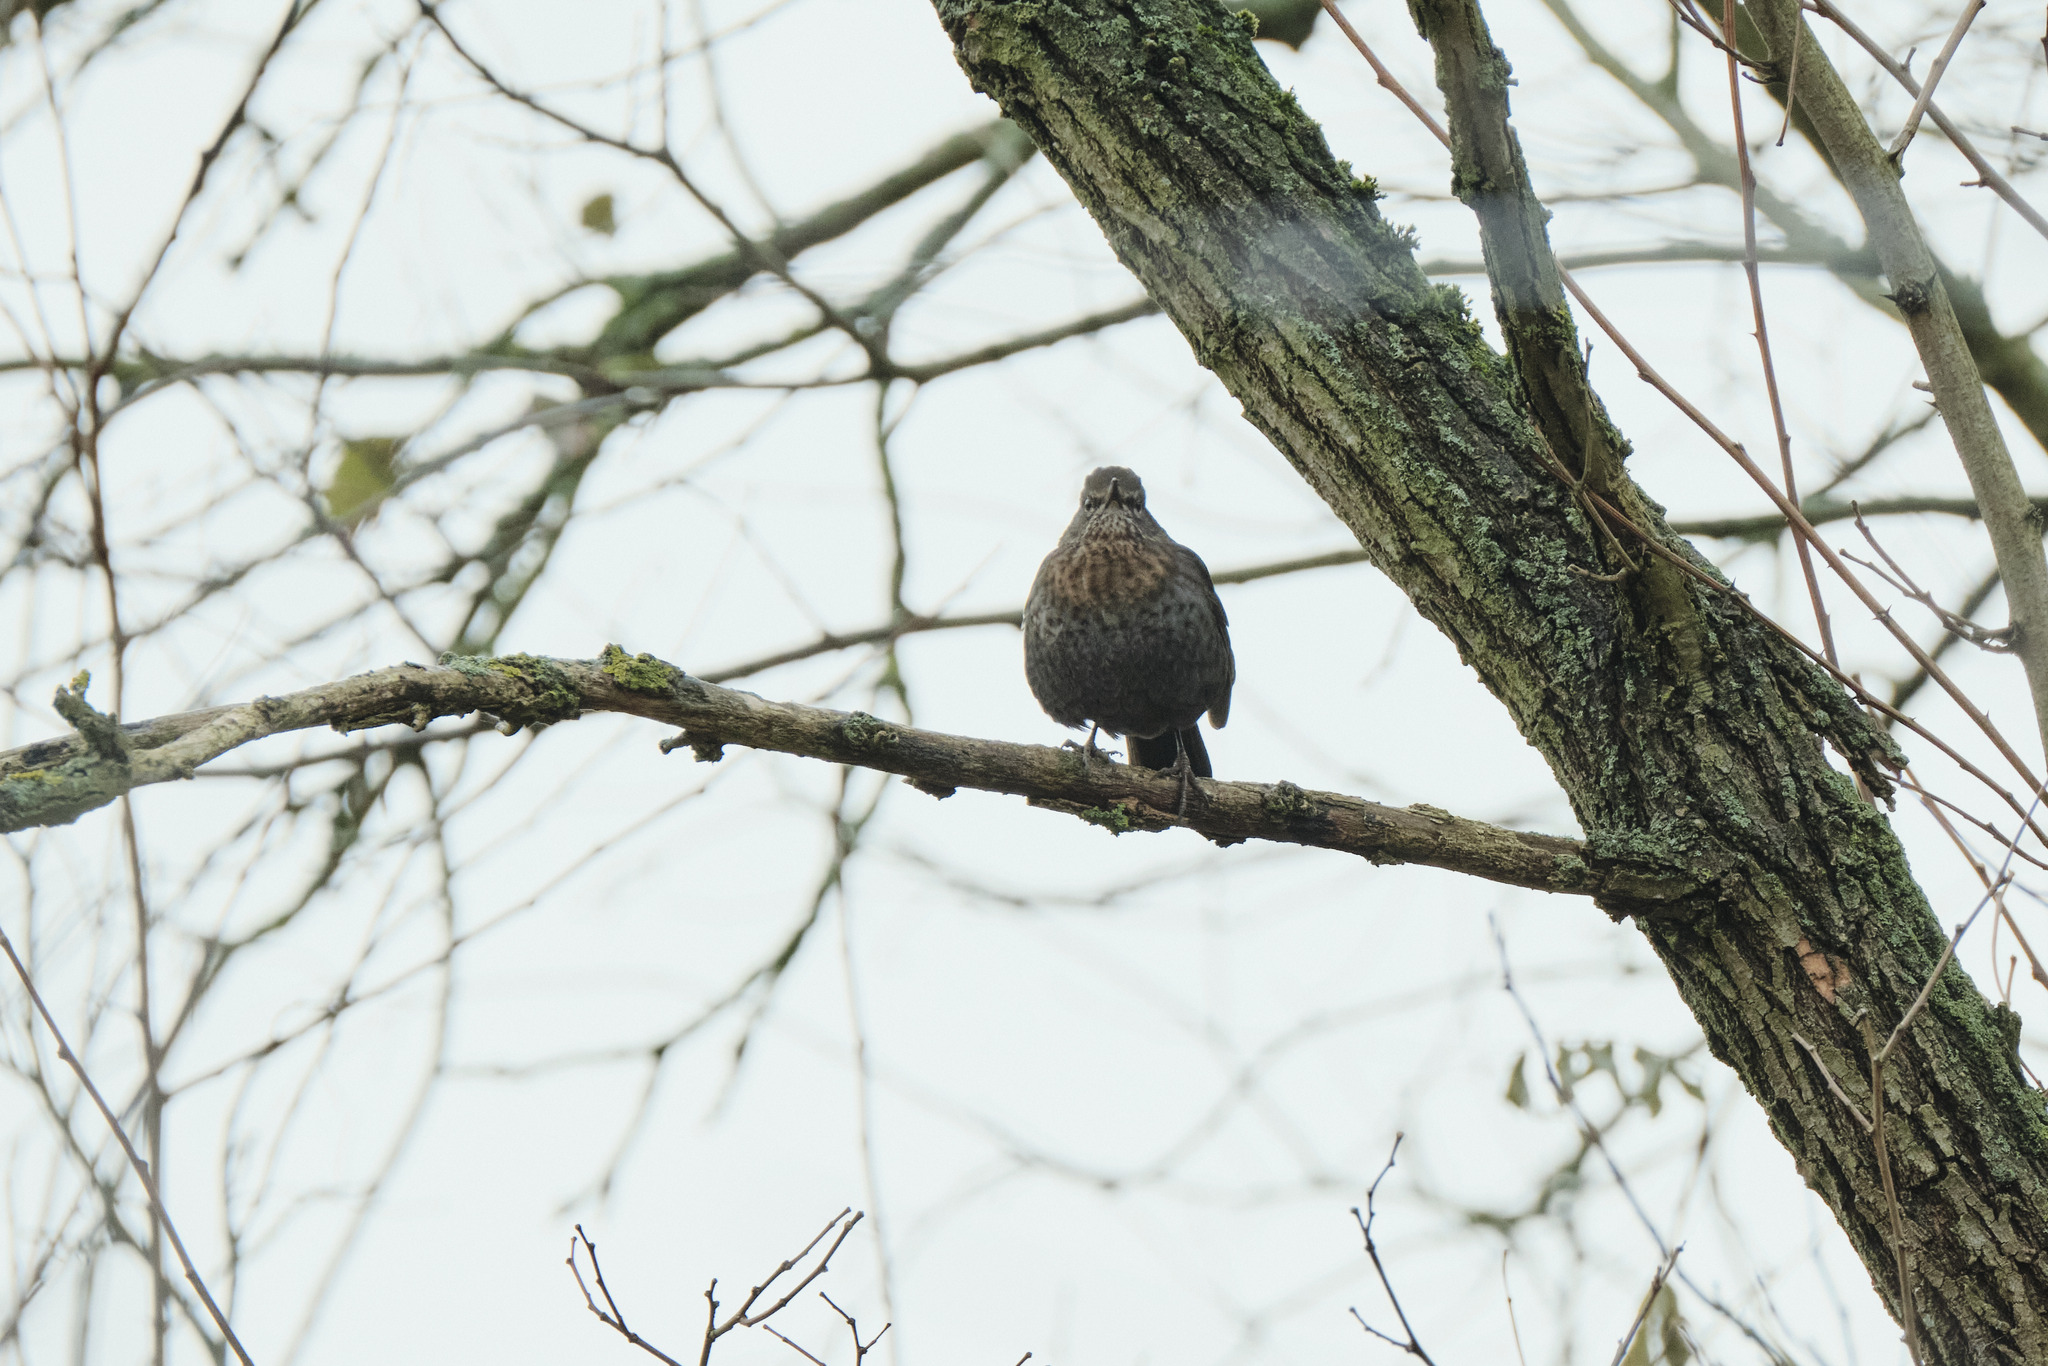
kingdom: Animalia
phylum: Chordata
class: Aves
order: Passeriformes
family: Turdidae
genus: Turdus
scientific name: Turdus merula
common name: Common blackbird
